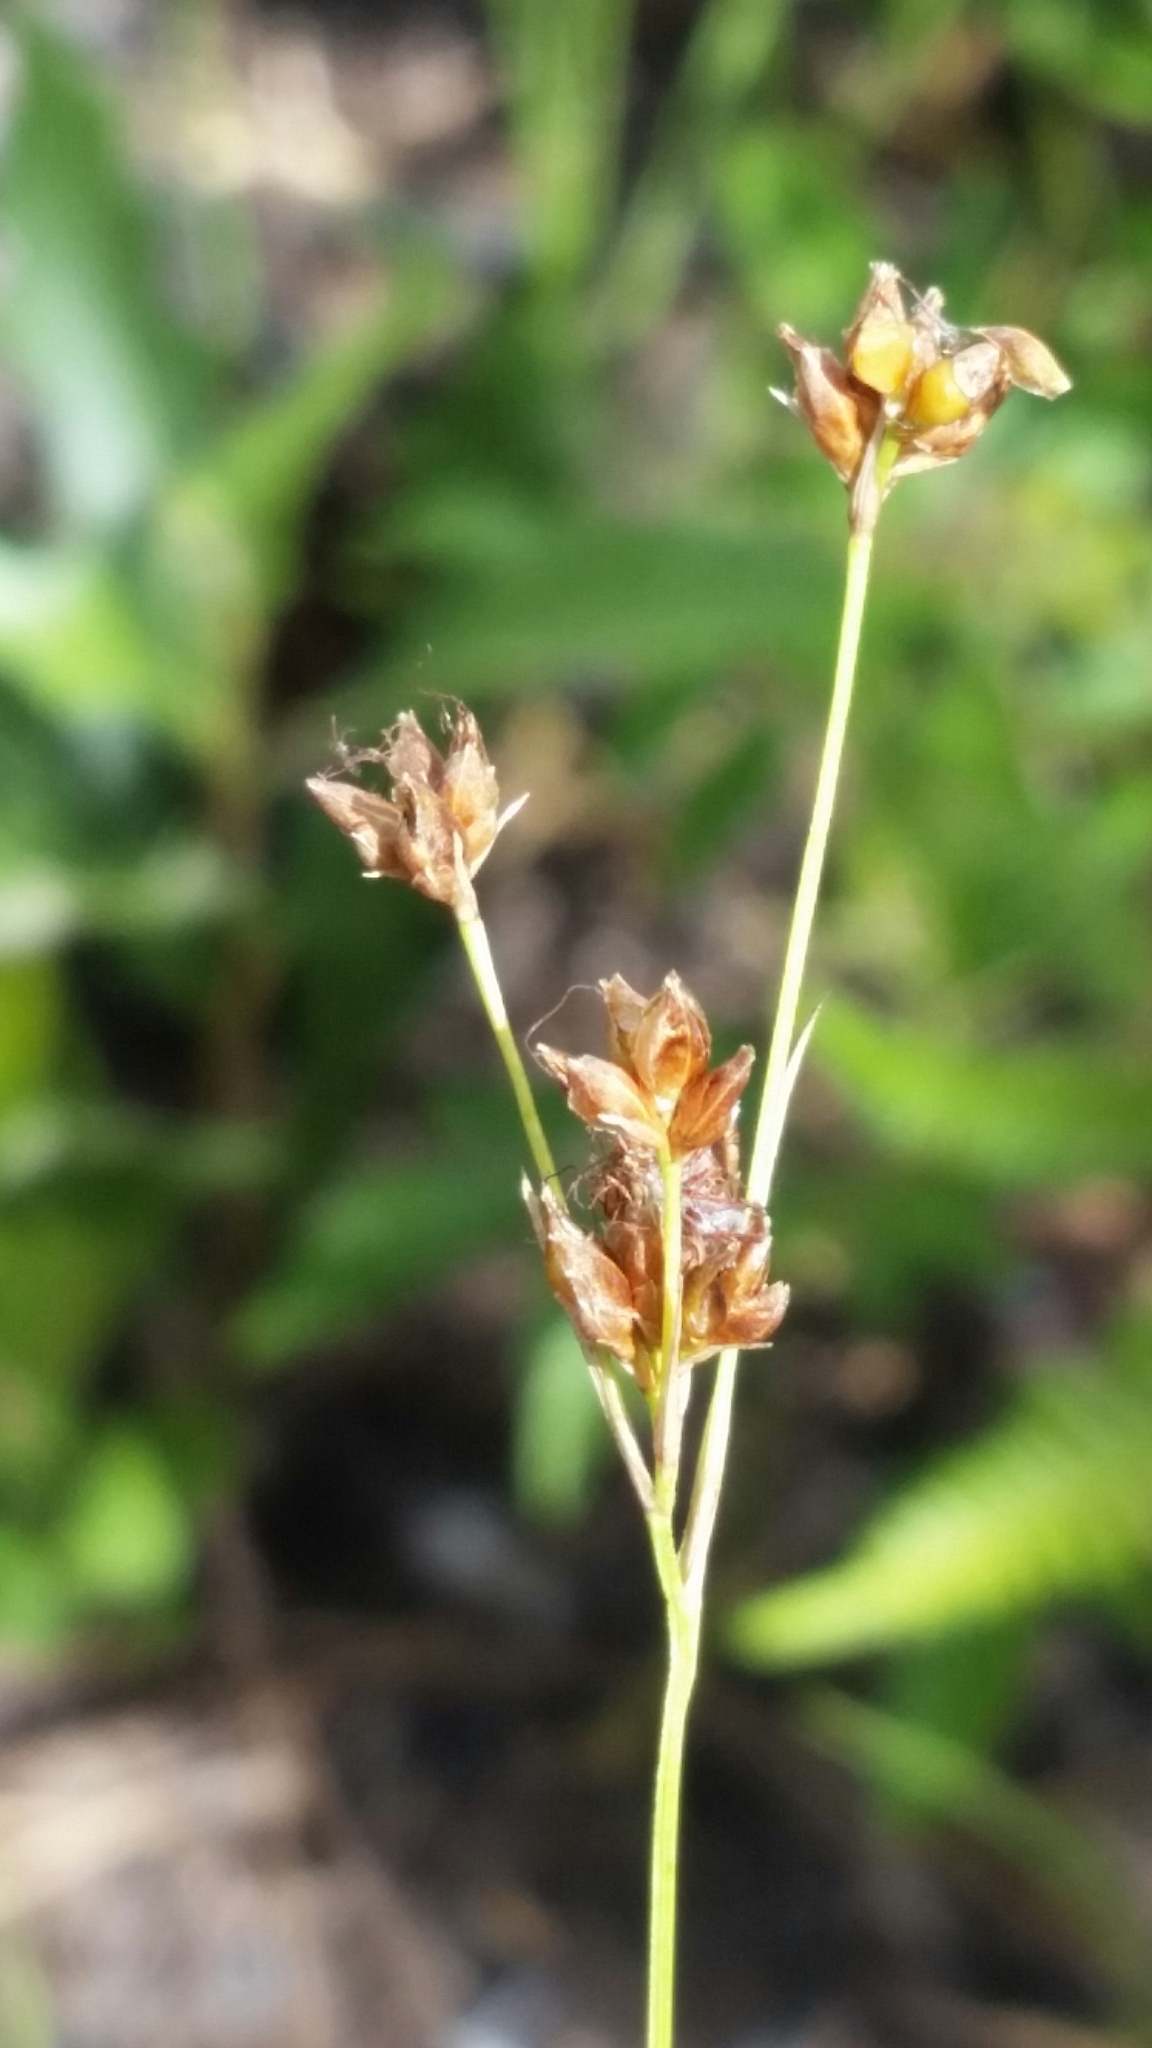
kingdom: Plantae
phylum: Tracheophyta
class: Liliopsida
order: Poales
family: Cyperaceae
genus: Rhynchospora
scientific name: Rhynchospora recognita
